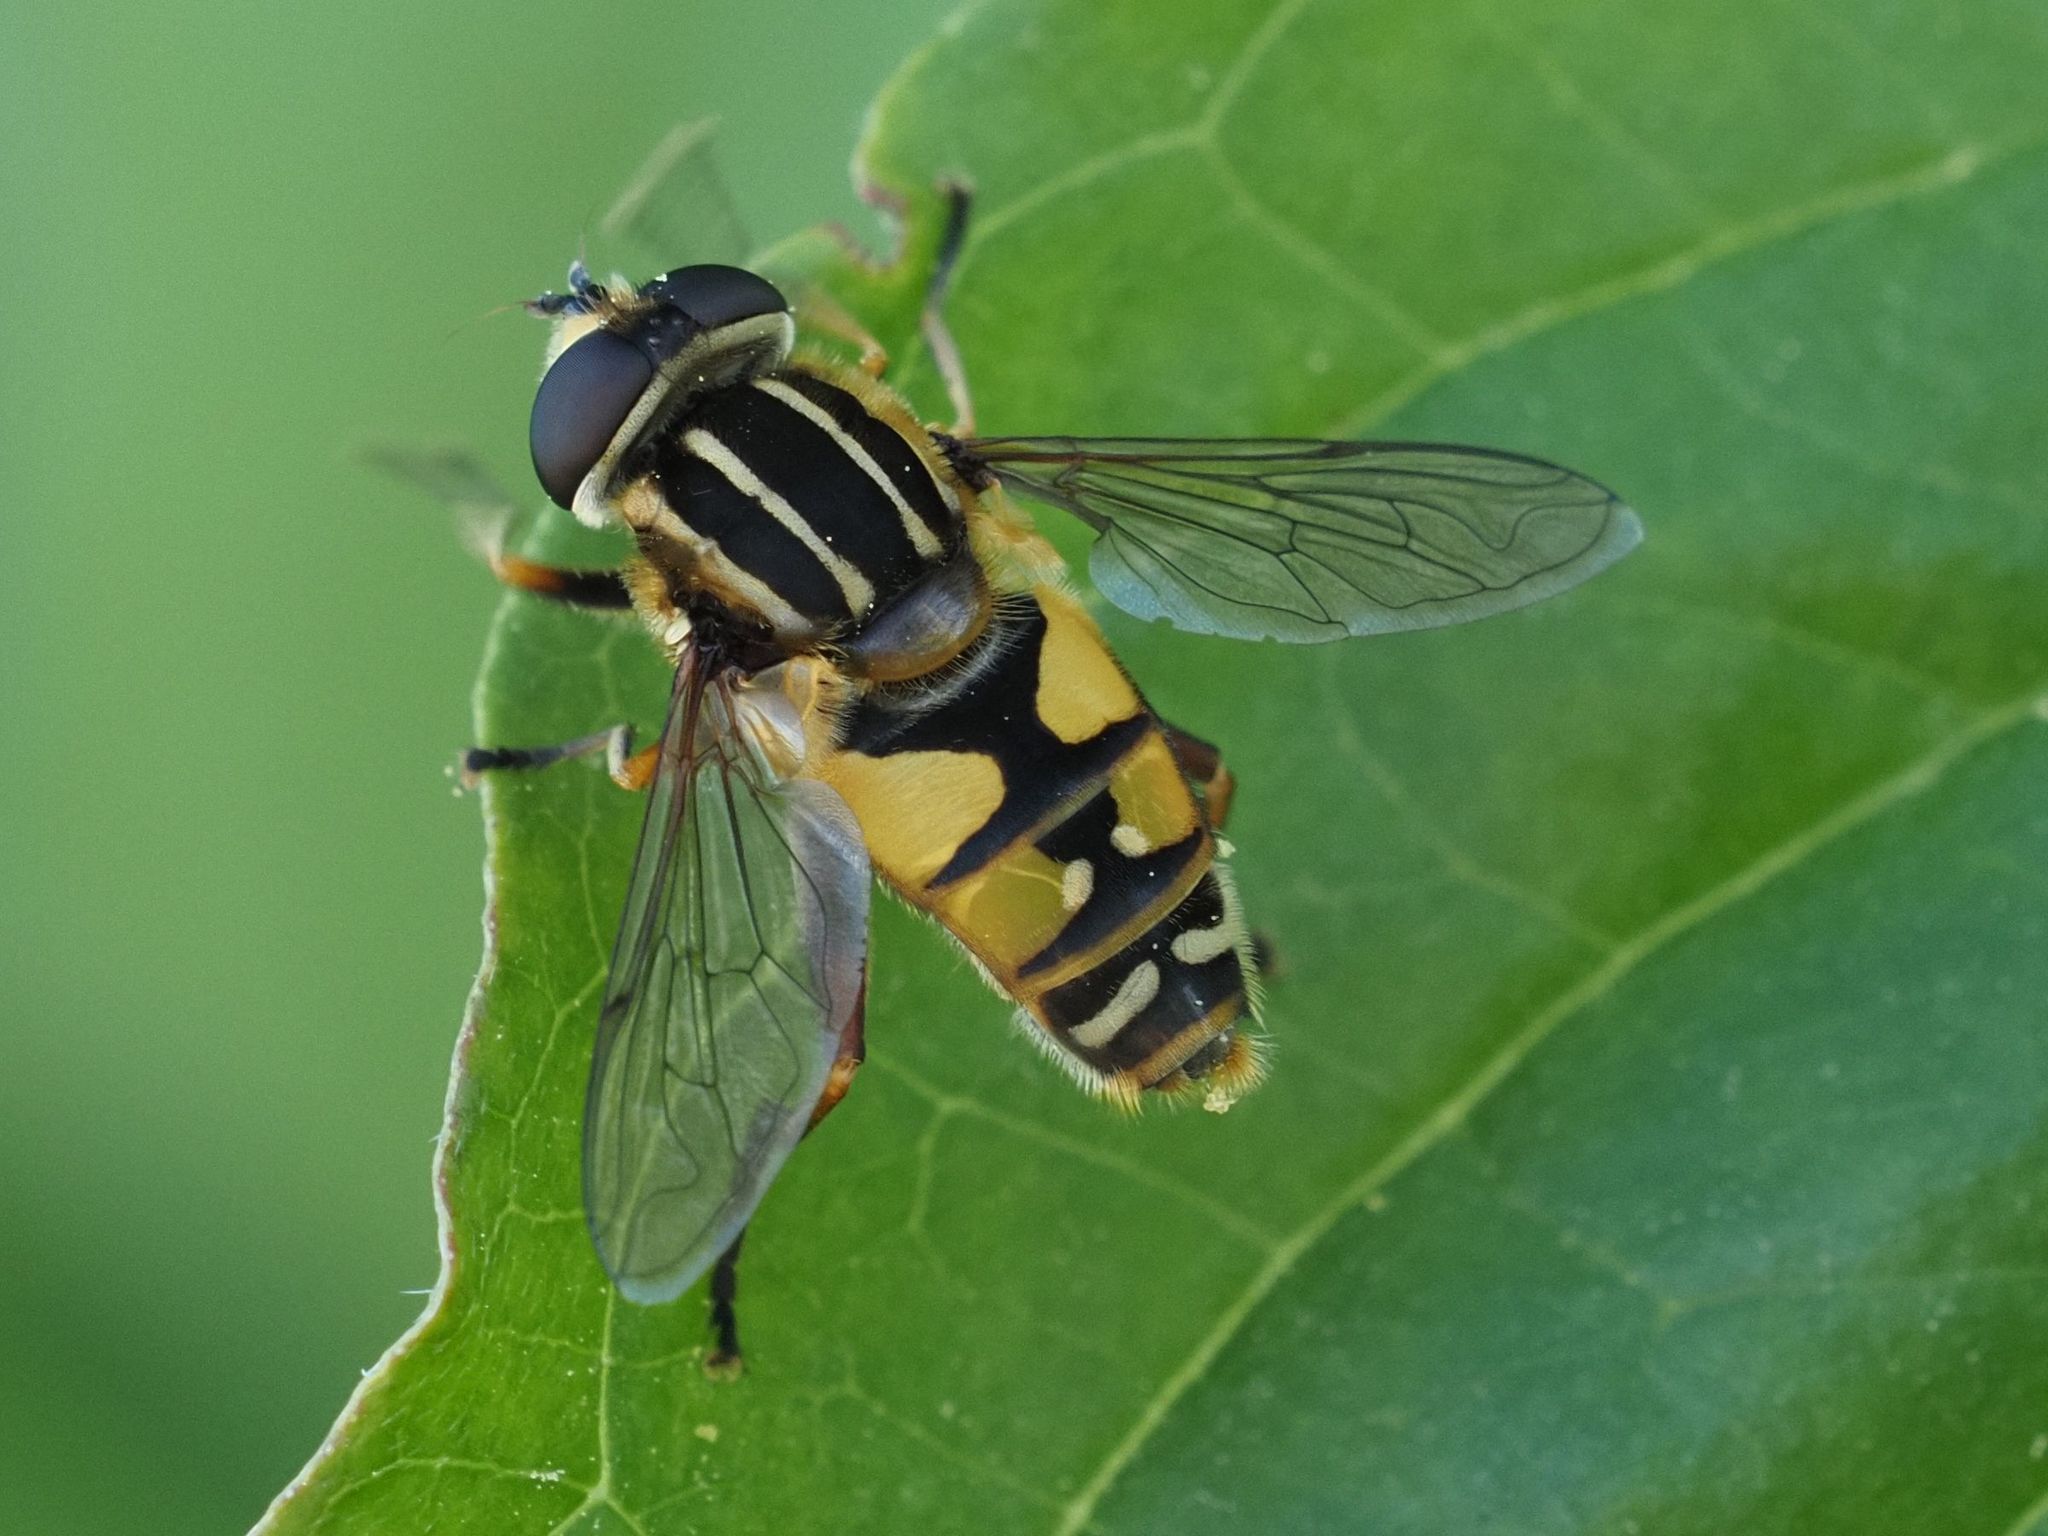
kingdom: Animalia
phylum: Arthropoda
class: Insecta
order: Diptera
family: Syrphidae
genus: Helophilus
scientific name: Helophilus pendulus
